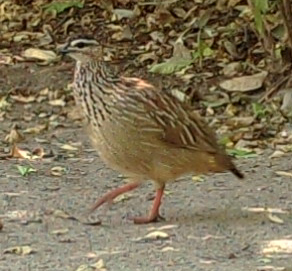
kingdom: Animalia
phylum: Chordata
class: Aves
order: Galliformes
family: Phasianidae
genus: Ortygornis
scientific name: Ortygornis sephaena
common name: Crested francolin
